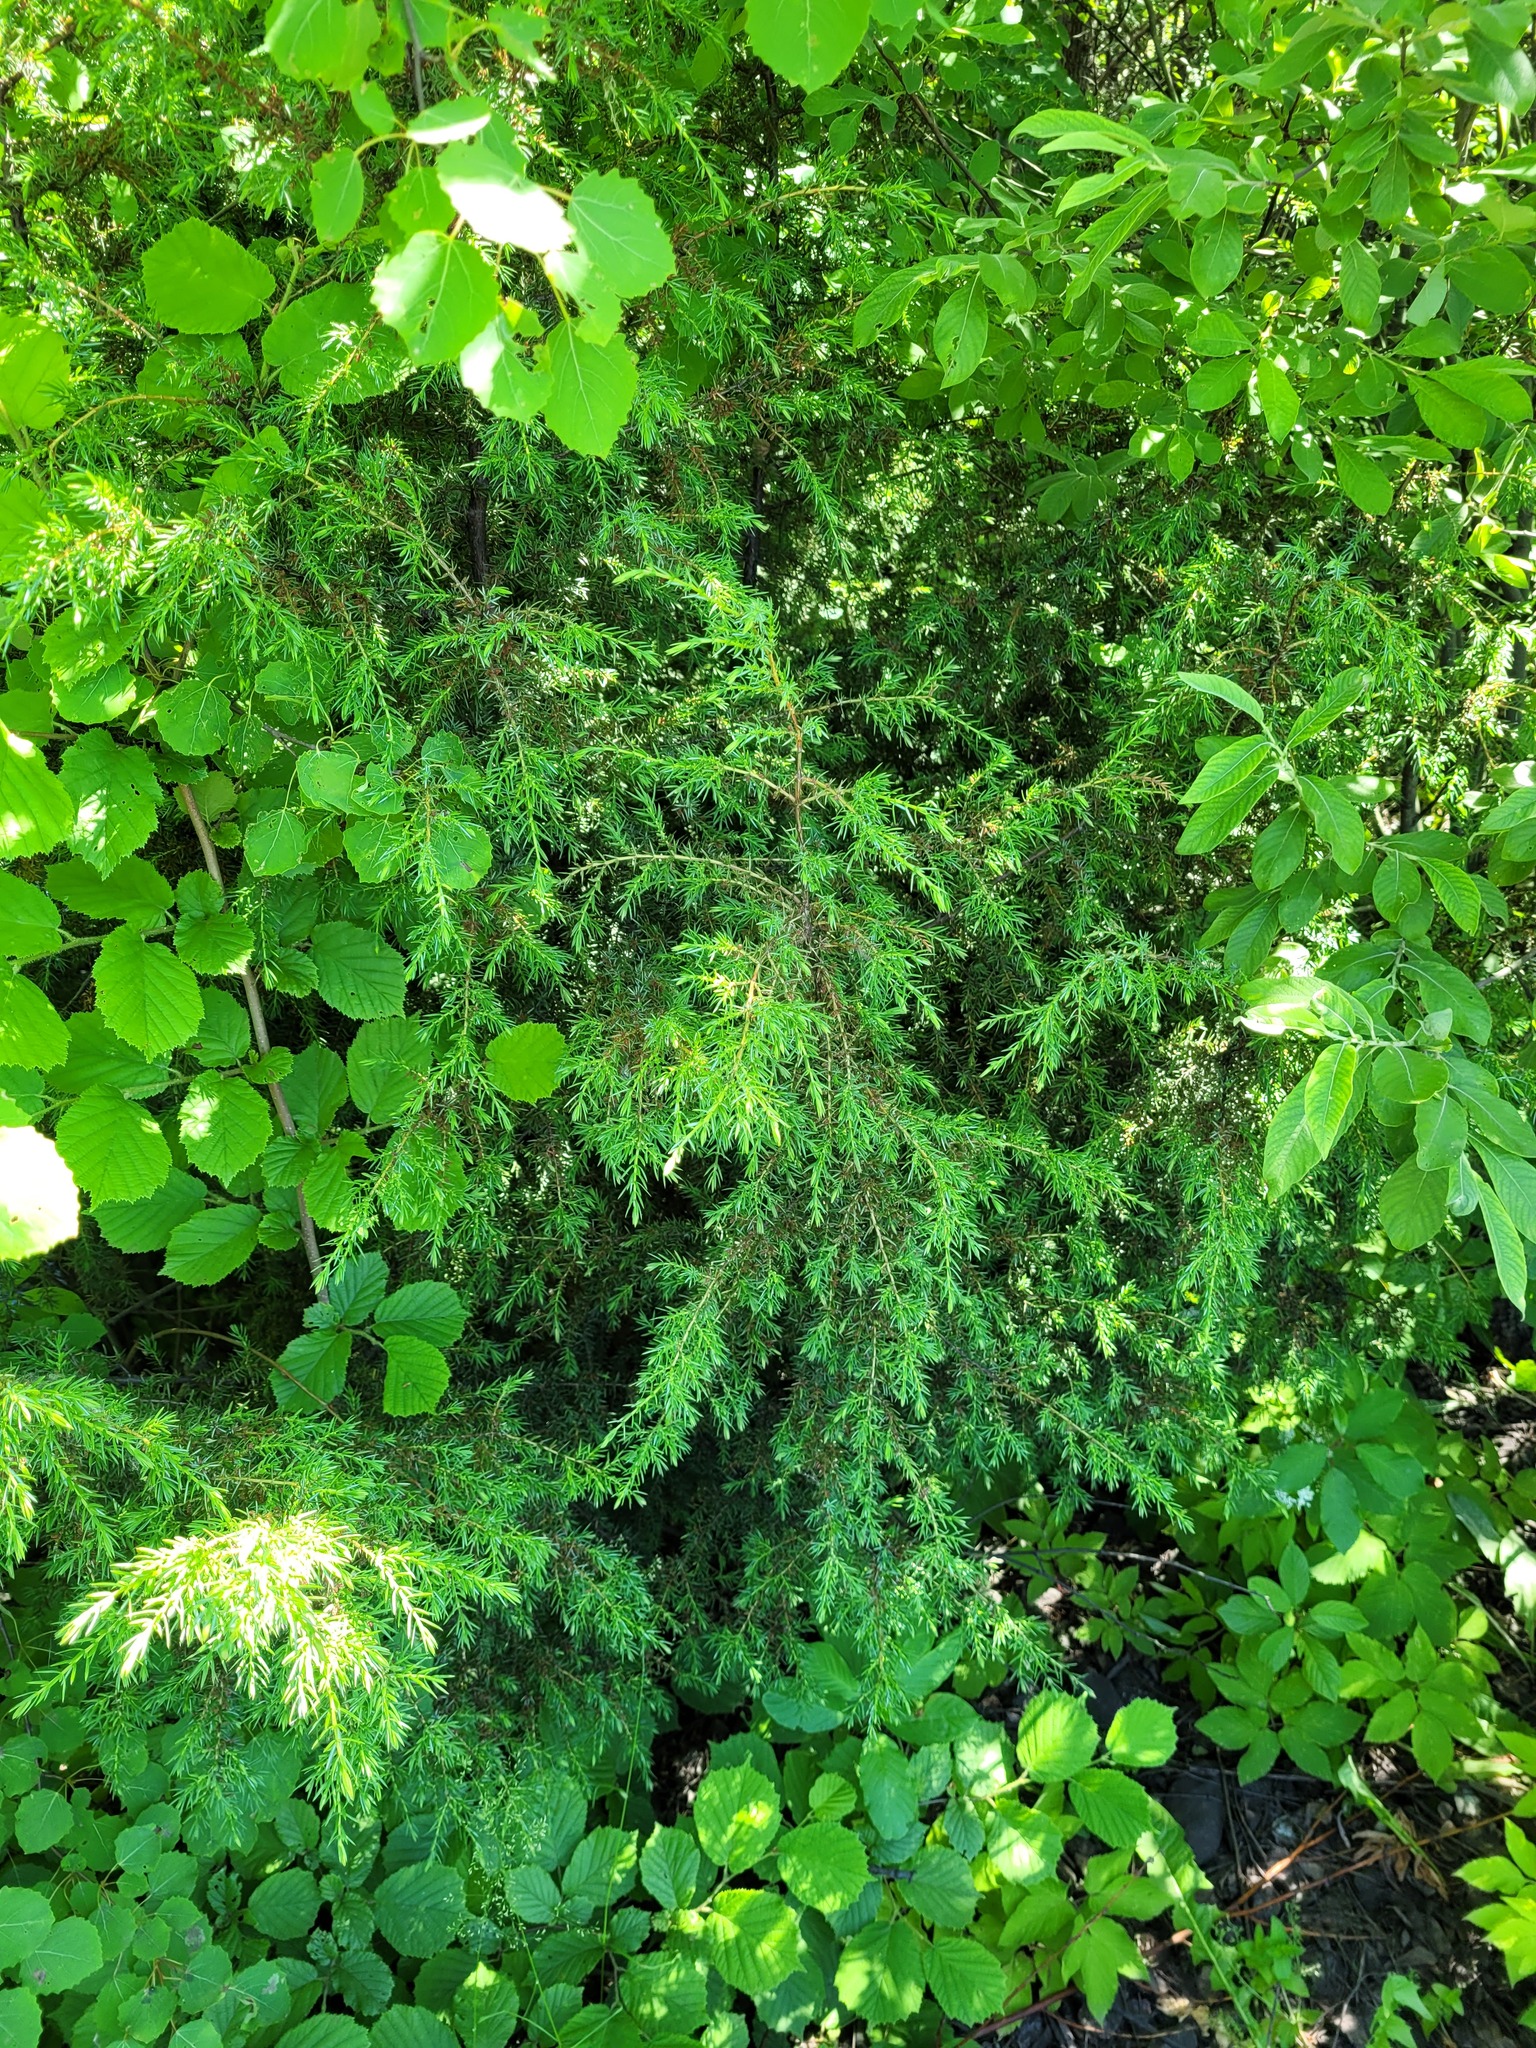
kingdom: Plantae
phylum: Tracheophyta
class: Pinopsida
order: Pinales
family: Cupressaceae
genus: Juniperus
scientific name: Juniperus communis
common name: Common juniper
